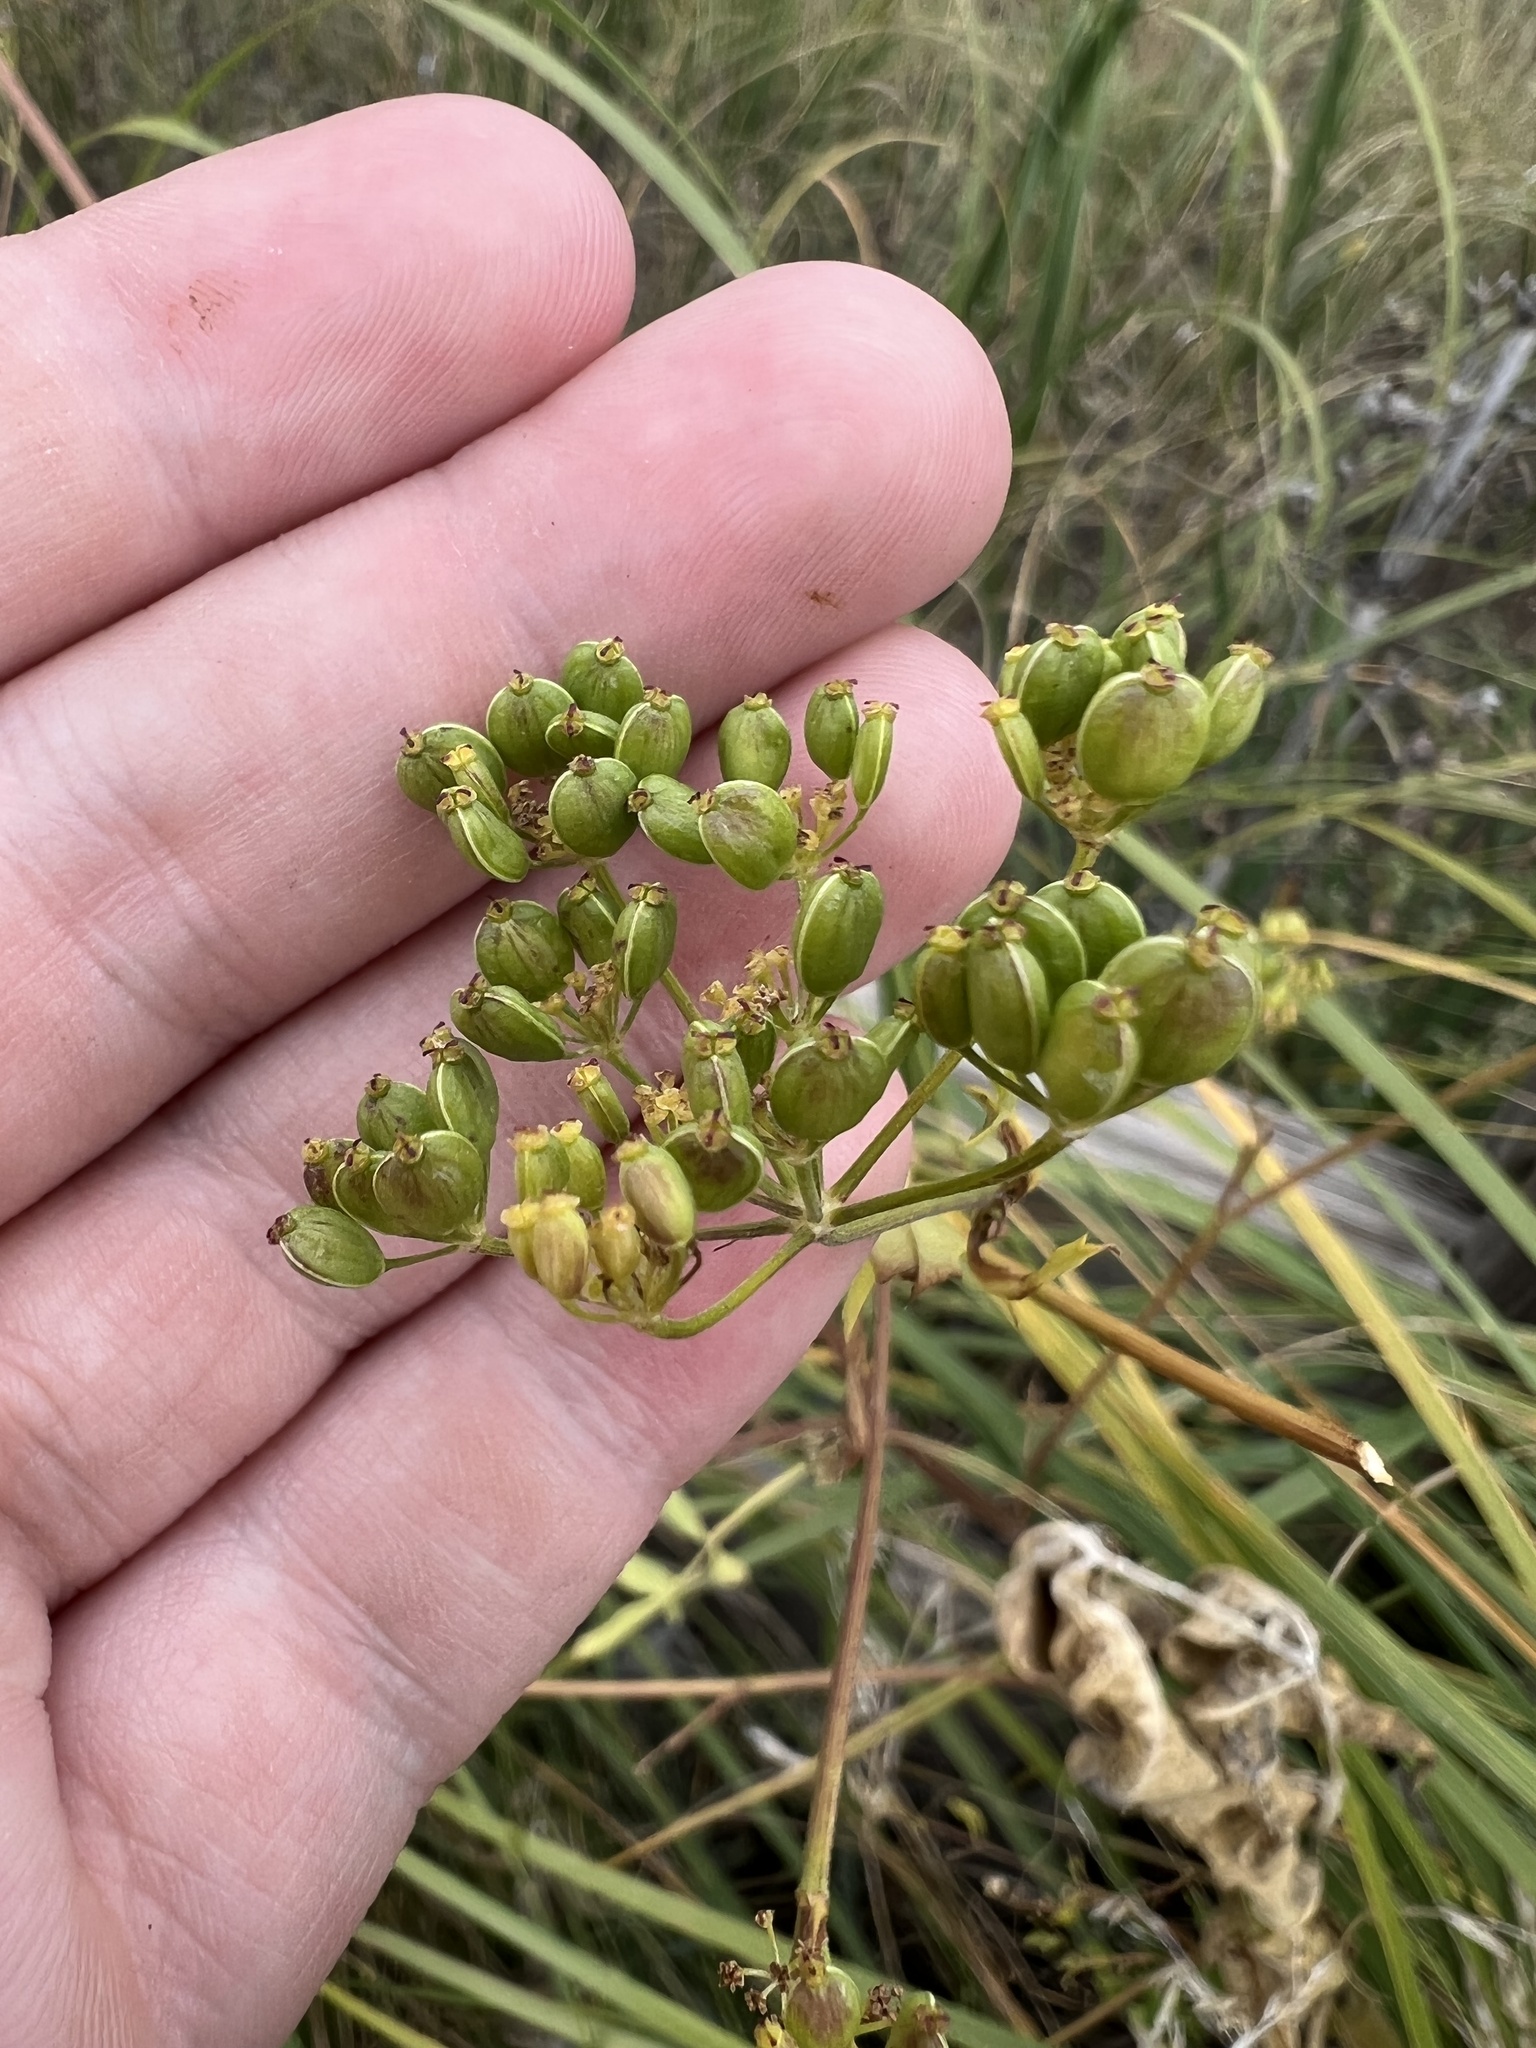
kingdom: Plantae
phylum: Tracheophyta
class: Magnoliopsida
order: Apiales
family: Apiaceae
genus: Pastinaca
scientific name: Pastinaca sativa
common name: Wild parsnip
